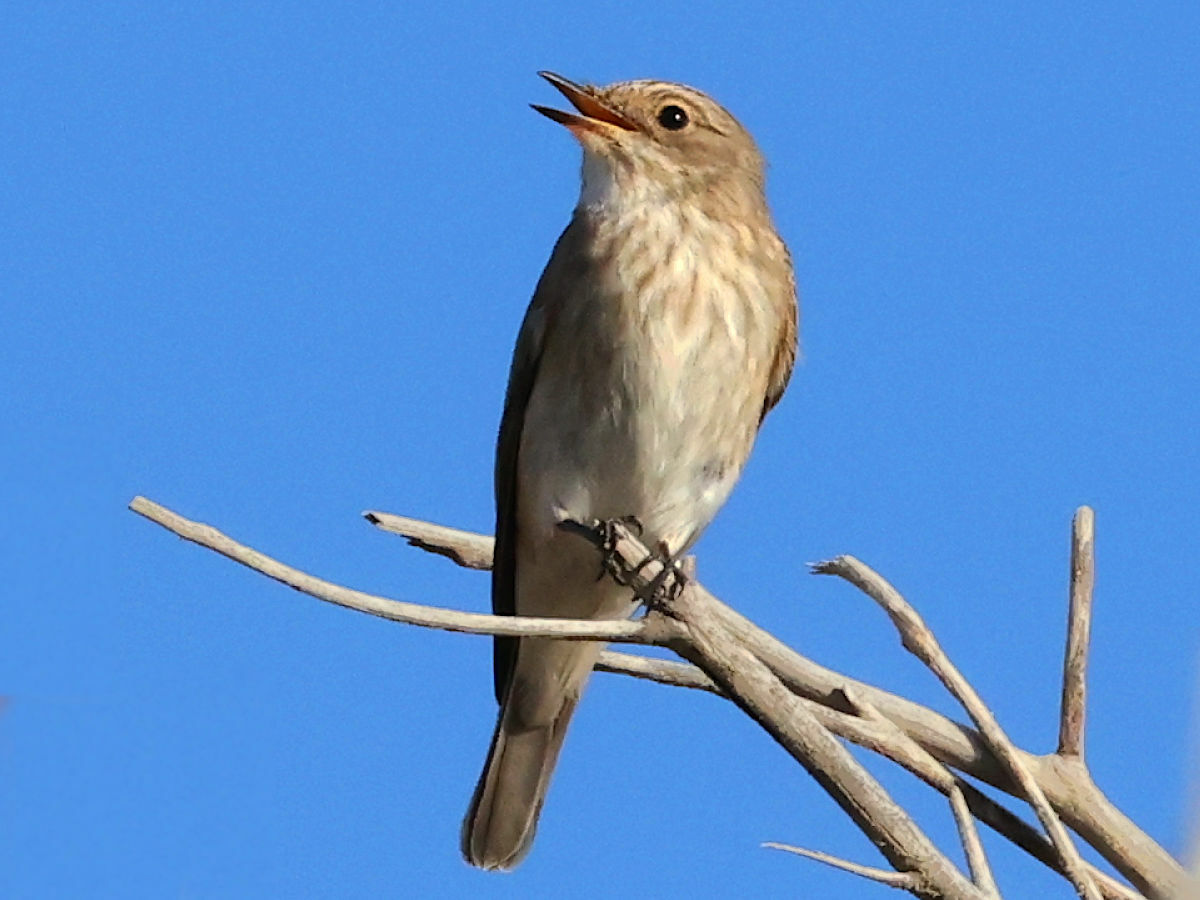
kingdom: Animalia
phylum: Chordata
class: Aves
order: Passeriformes
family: Muscicapidae
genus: Muscicapa
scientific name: Muscicapa striata
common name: Spotted flycatcher
